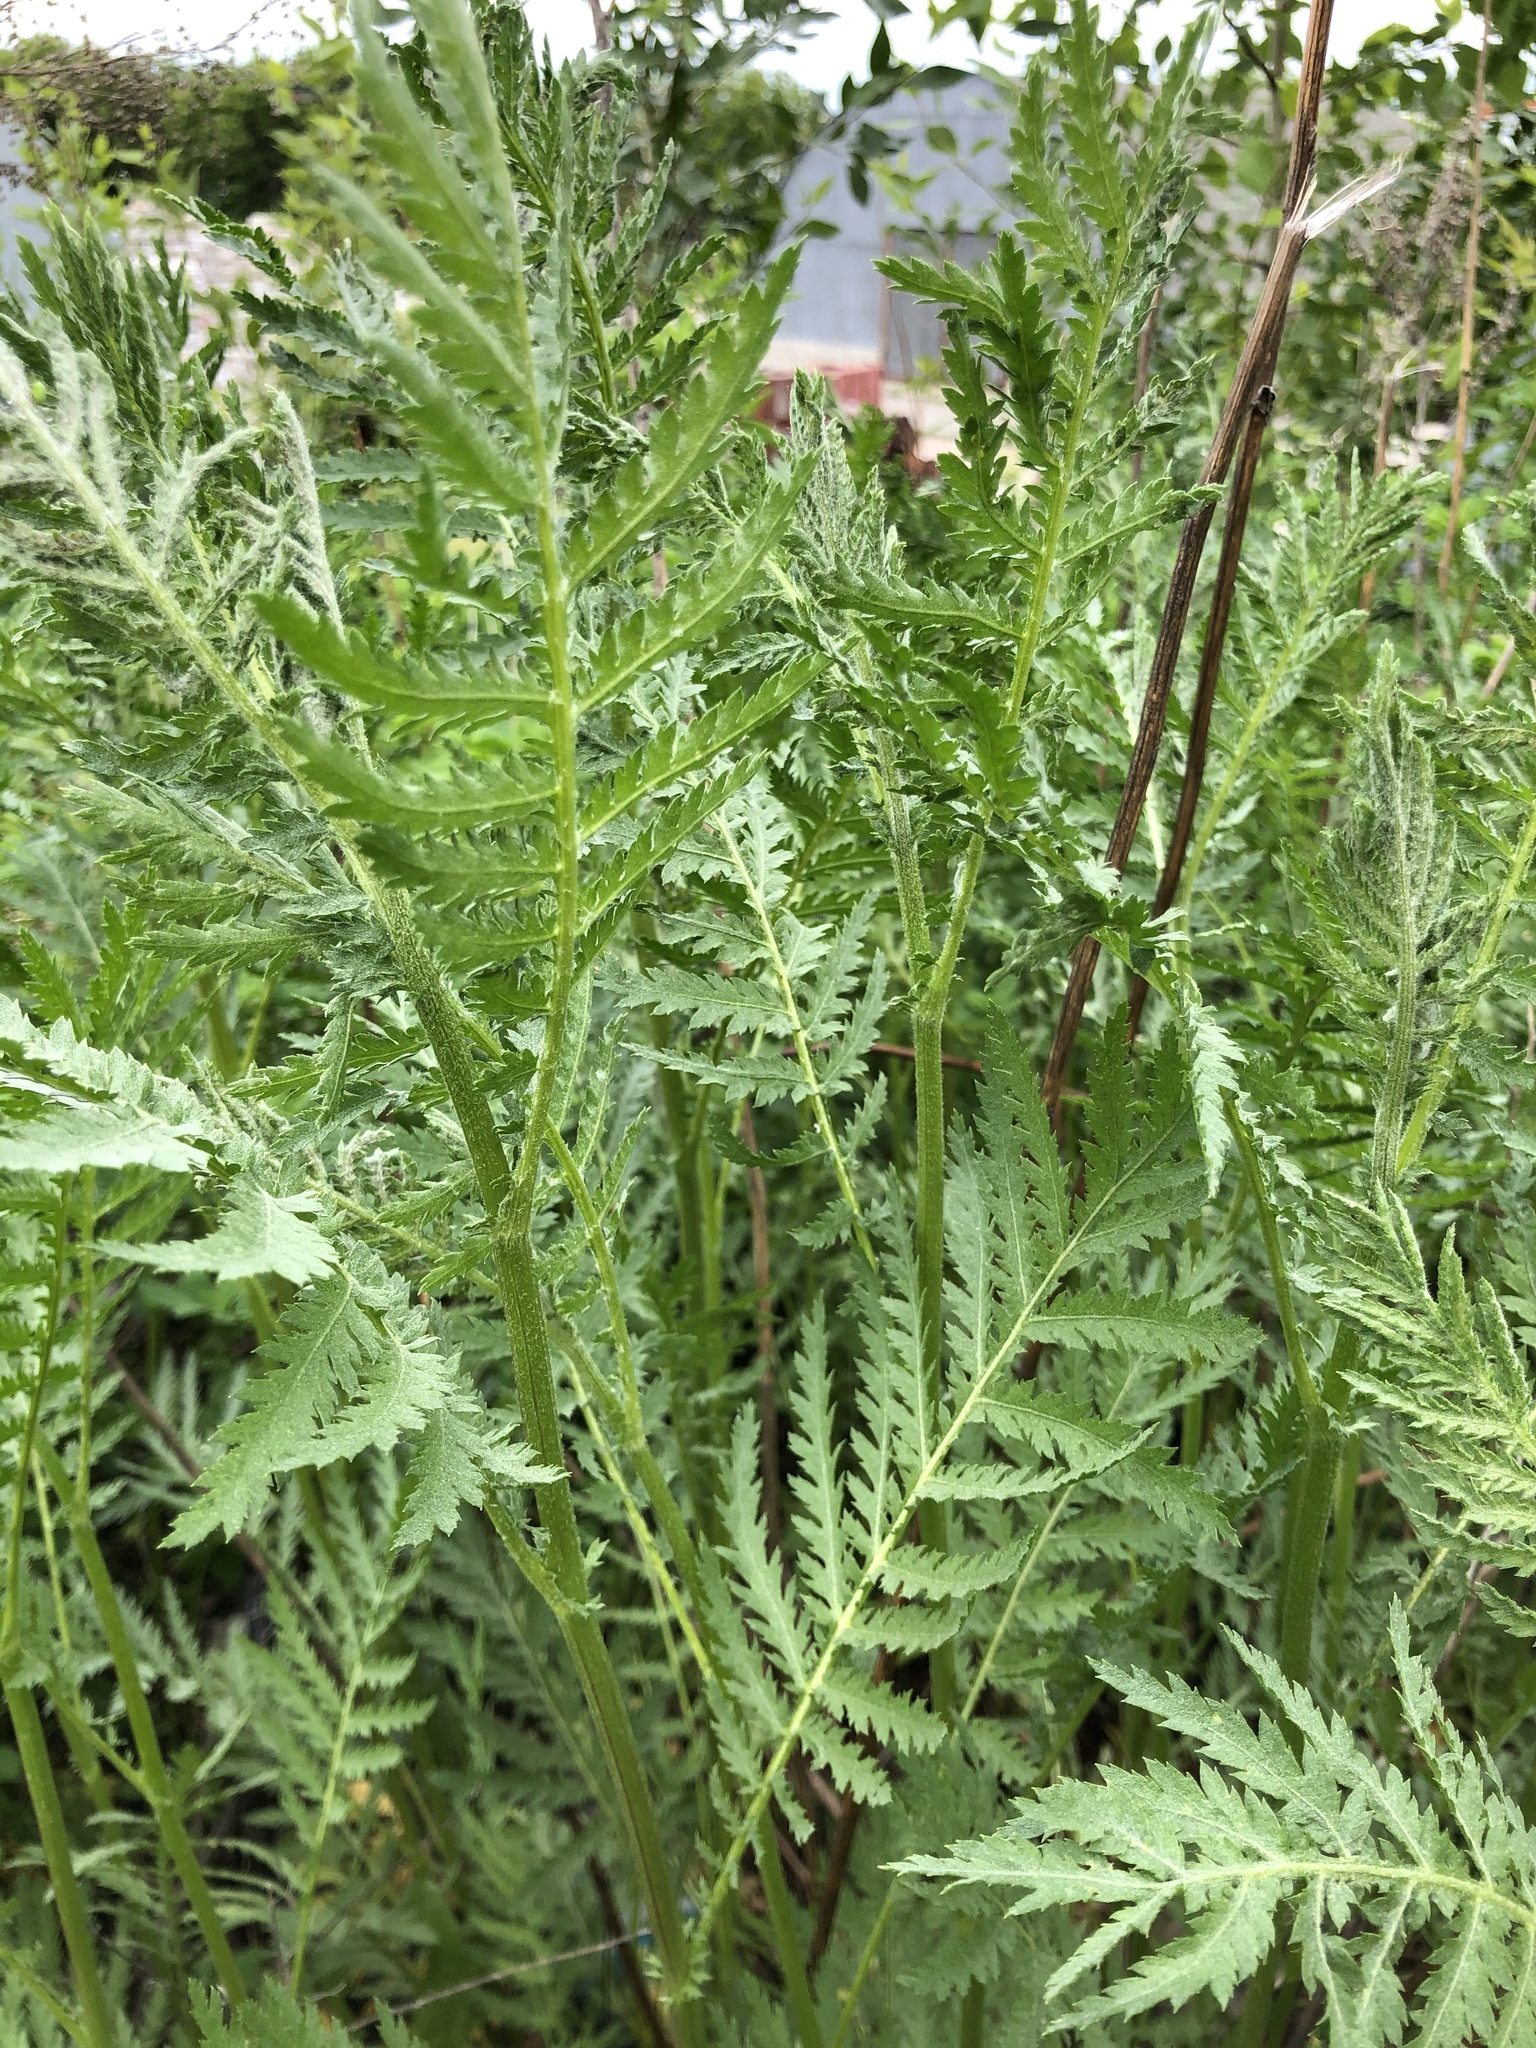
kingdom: Plantae
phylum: Tracheophyta
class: Magnoliopsida
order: Asterales
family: Asteraceae
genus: Tanacetum
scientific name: Tanacetum vulgare
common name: Common tansy
